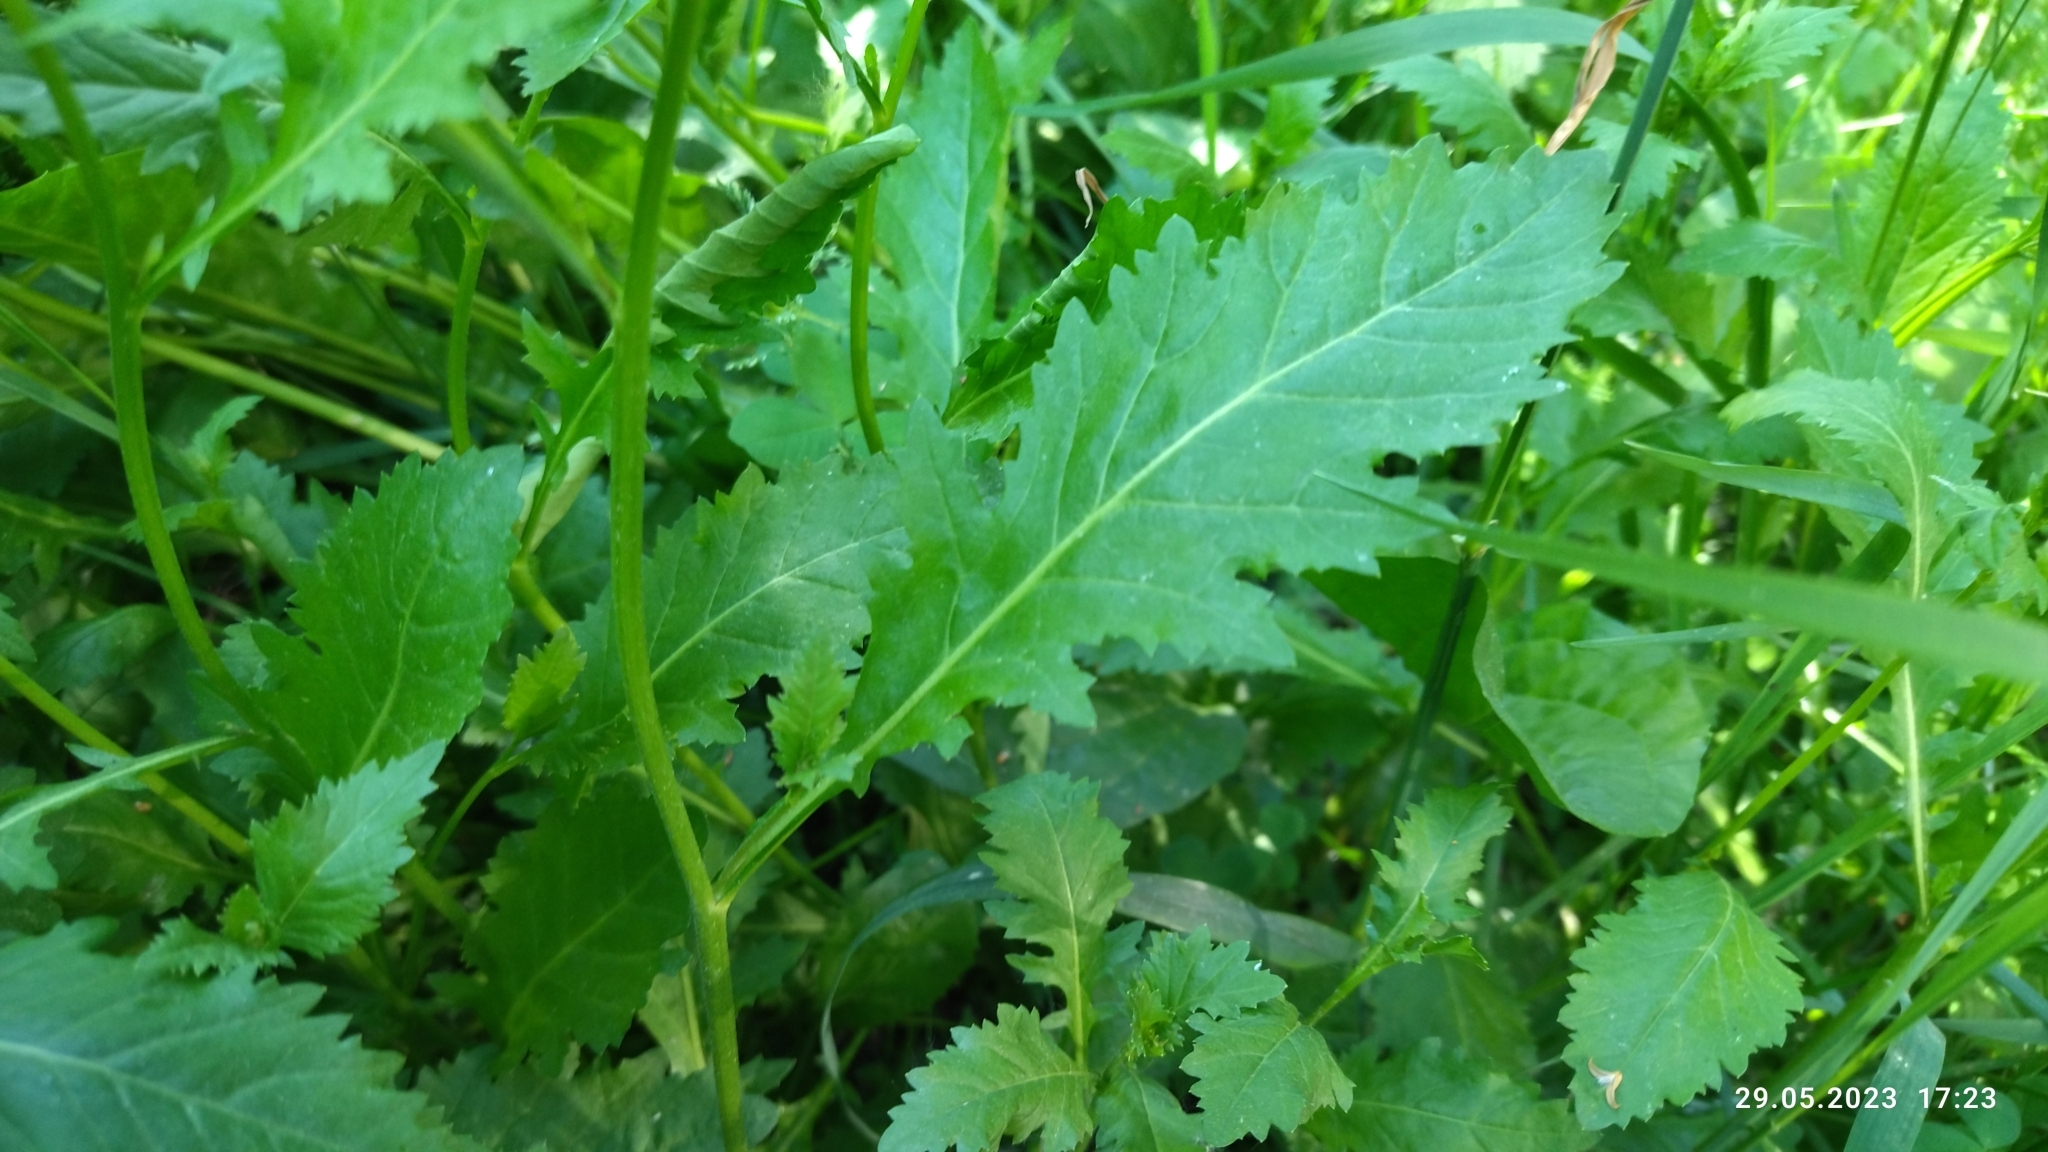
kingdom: Plantae
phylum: Tracheophyta
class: Magnoliopsida
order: Brassicales
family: Brassicaceae
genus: Rorippa
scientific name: Rorippa anceps
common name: Rorippa
